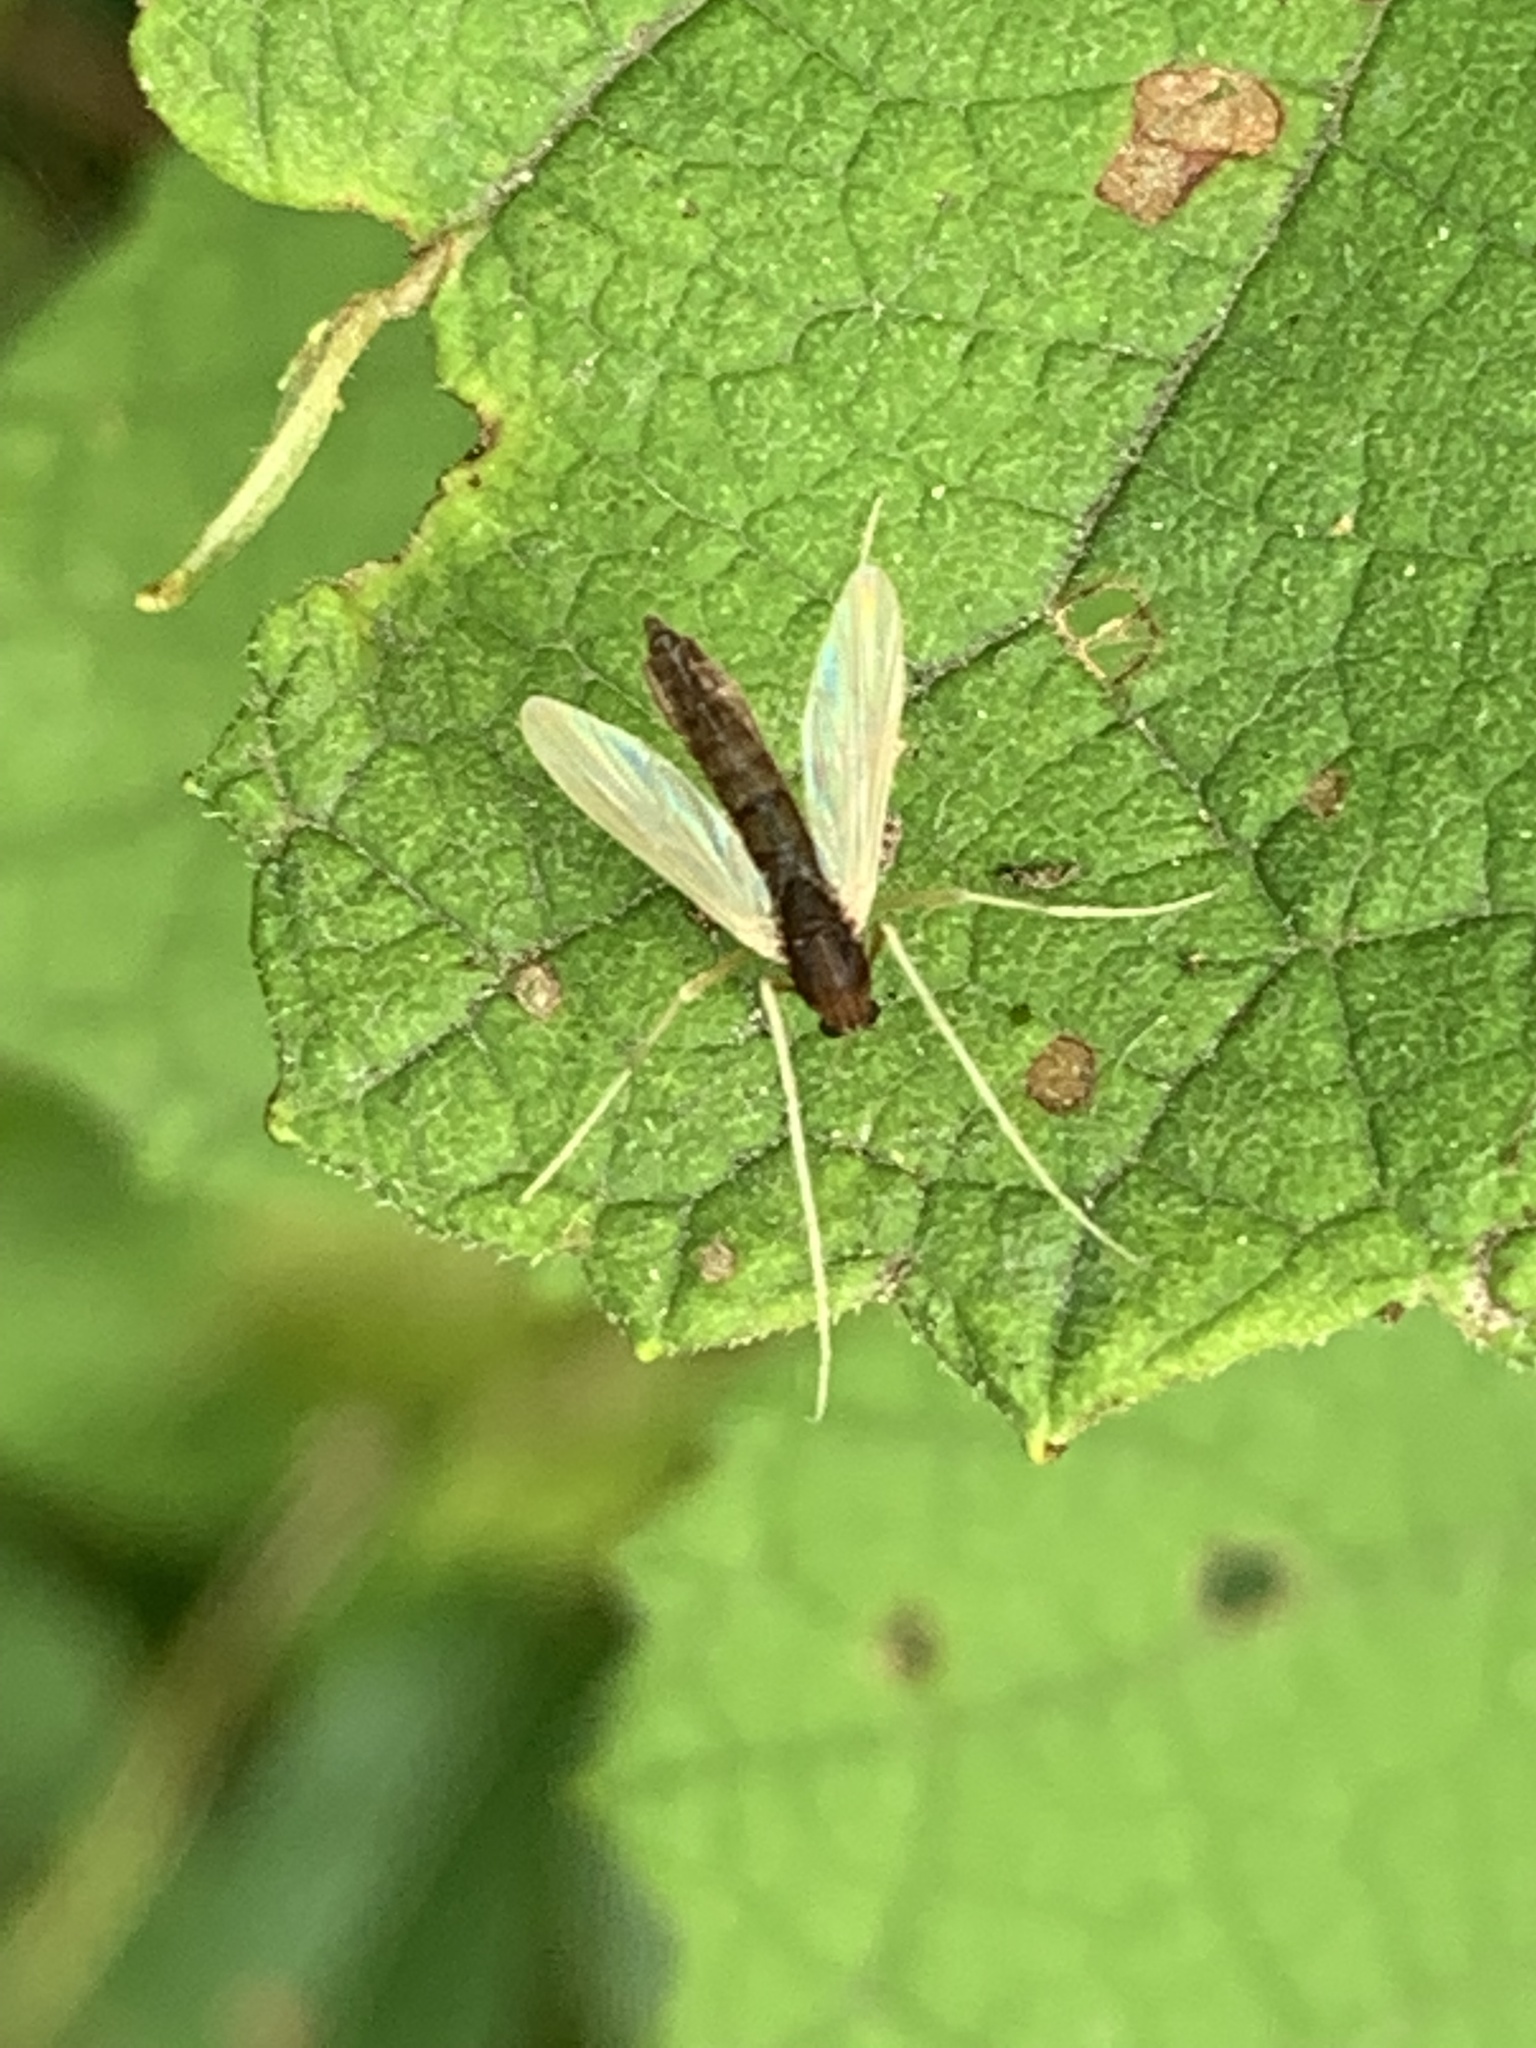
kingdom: Animalia
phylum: Arthropoda
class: Insecta
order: Diptera
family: Chironomidae
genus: Hyporhygma
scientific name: Hyporhygma quadripunctatus
